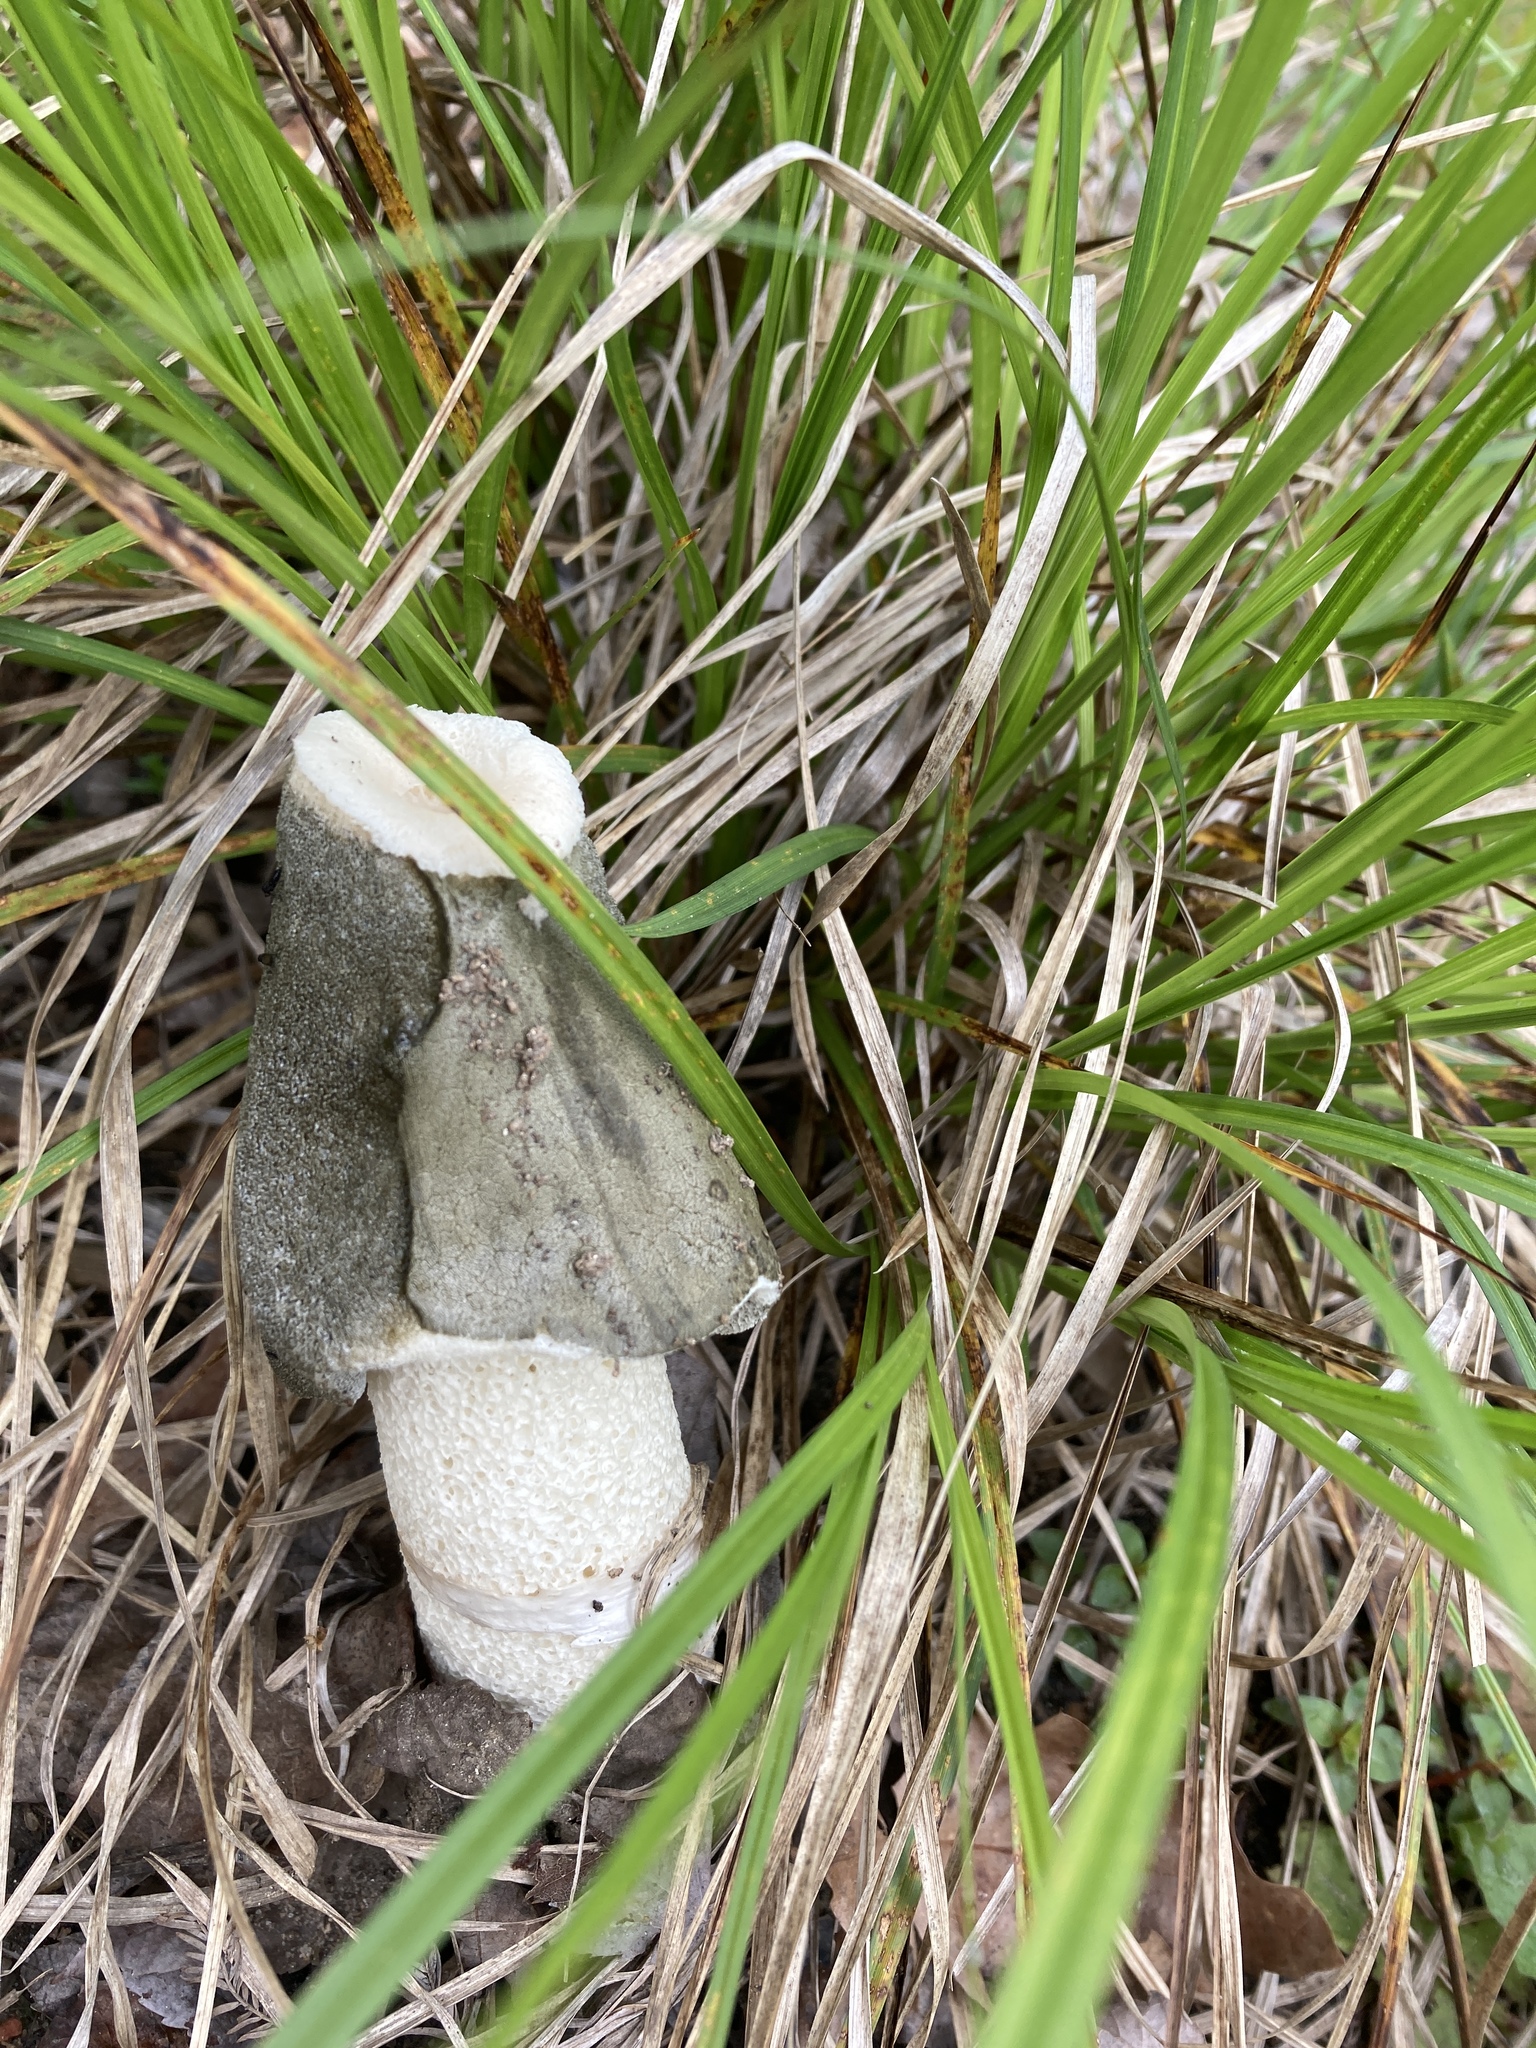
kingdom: Fungi
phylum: Basidiomycota
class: Agaricomycetes
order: Phallales
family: Phallaceae
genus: Phallus
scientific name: Phallus ravenelii
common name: Ravenel's stinkhorn
